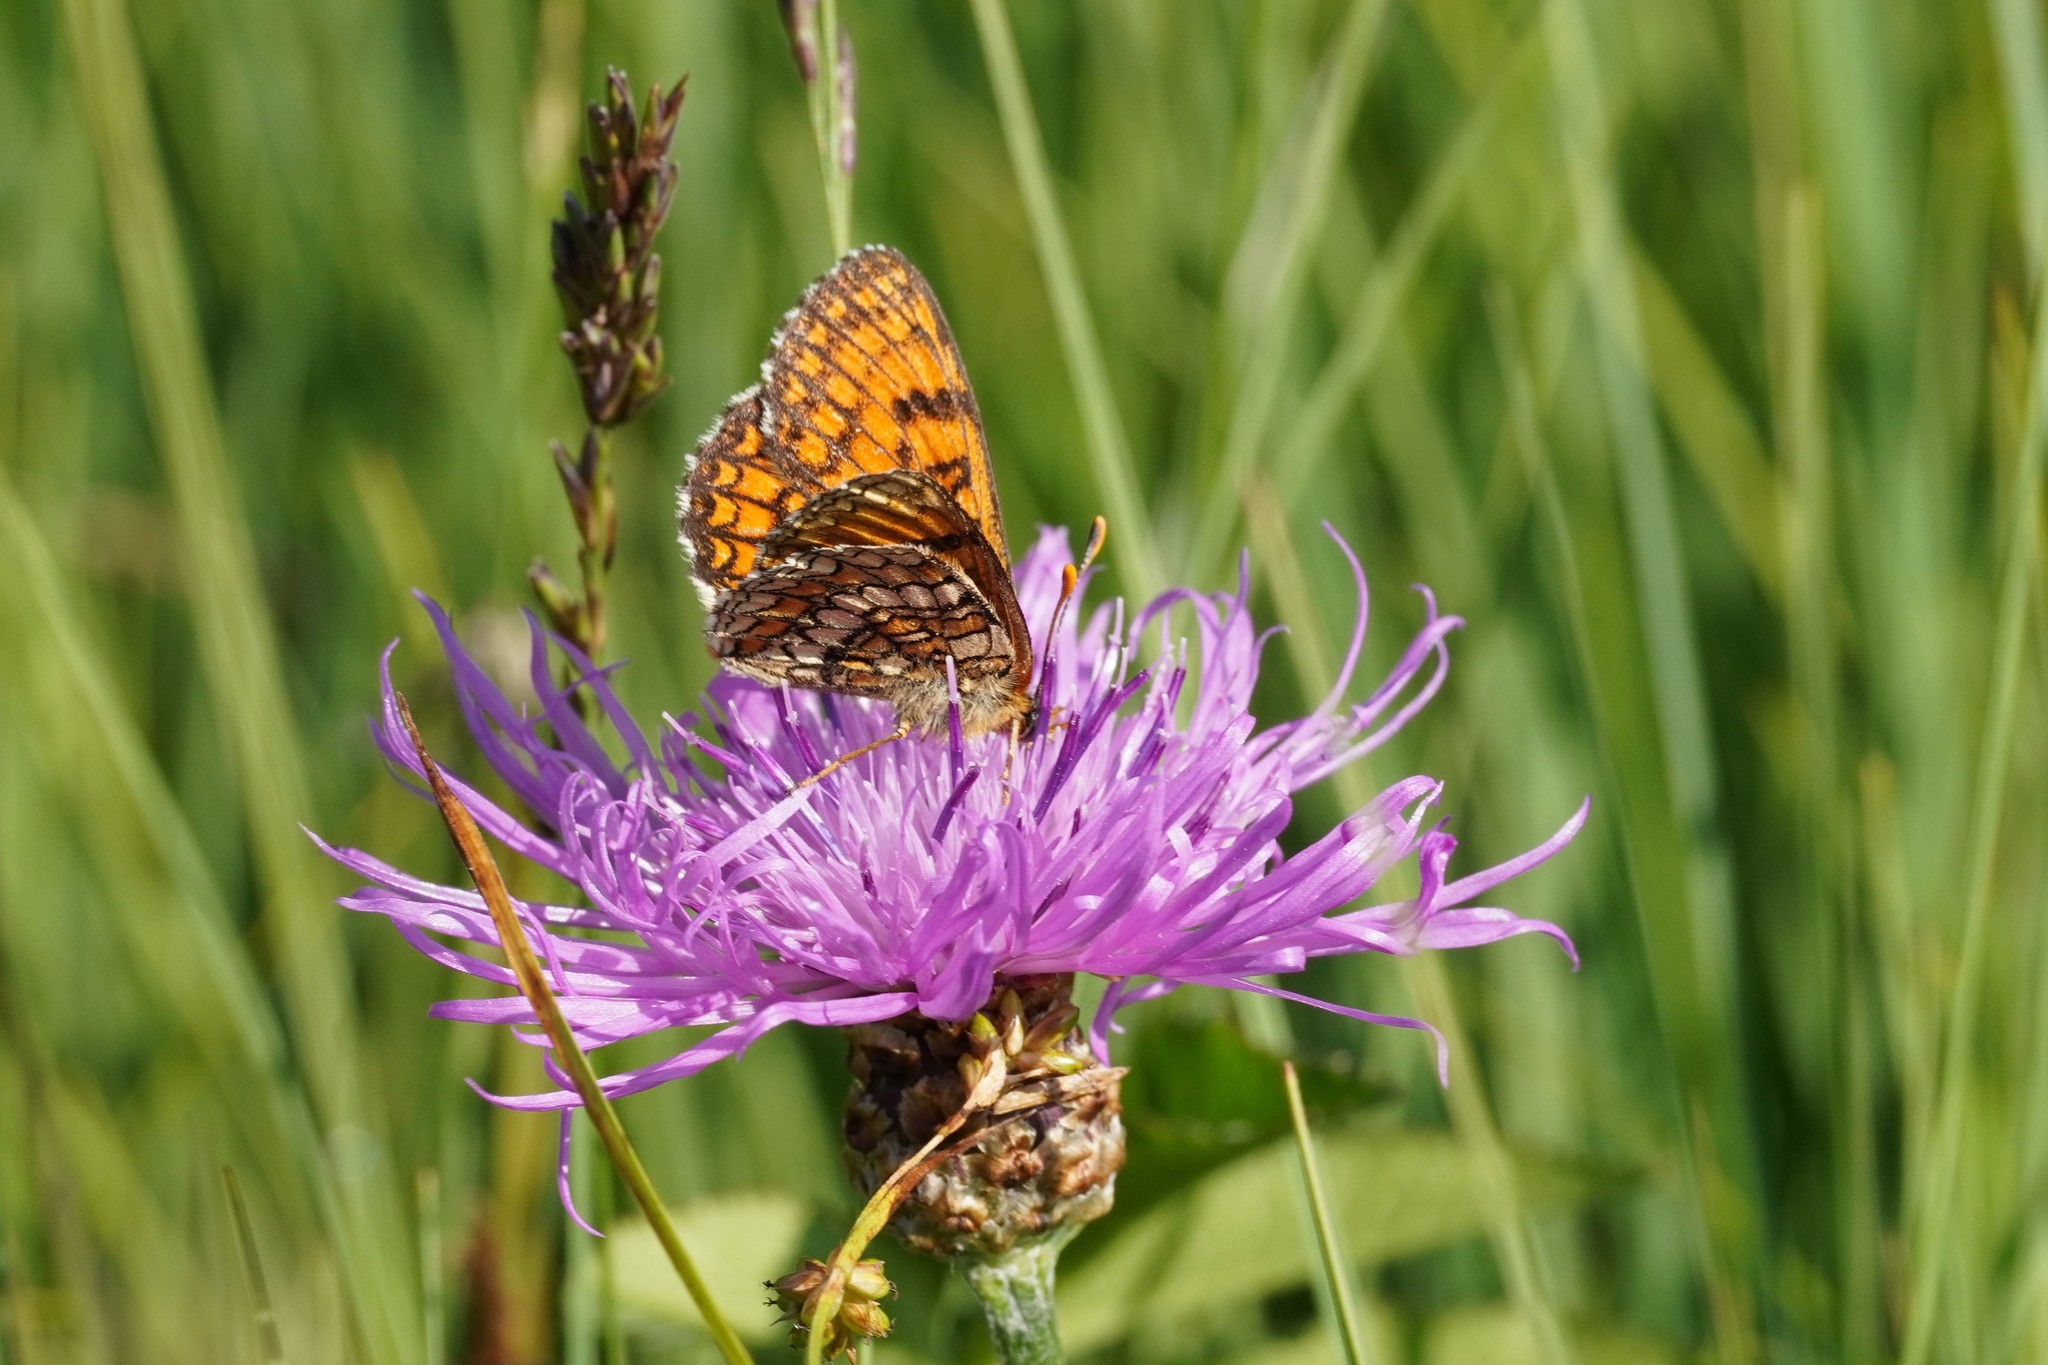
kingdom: Animalia
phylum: Arthropoda
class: Insecta
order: Lepidoptera
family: Nymphalidae
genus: Mellicta
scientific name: Mellicta parthenoides
